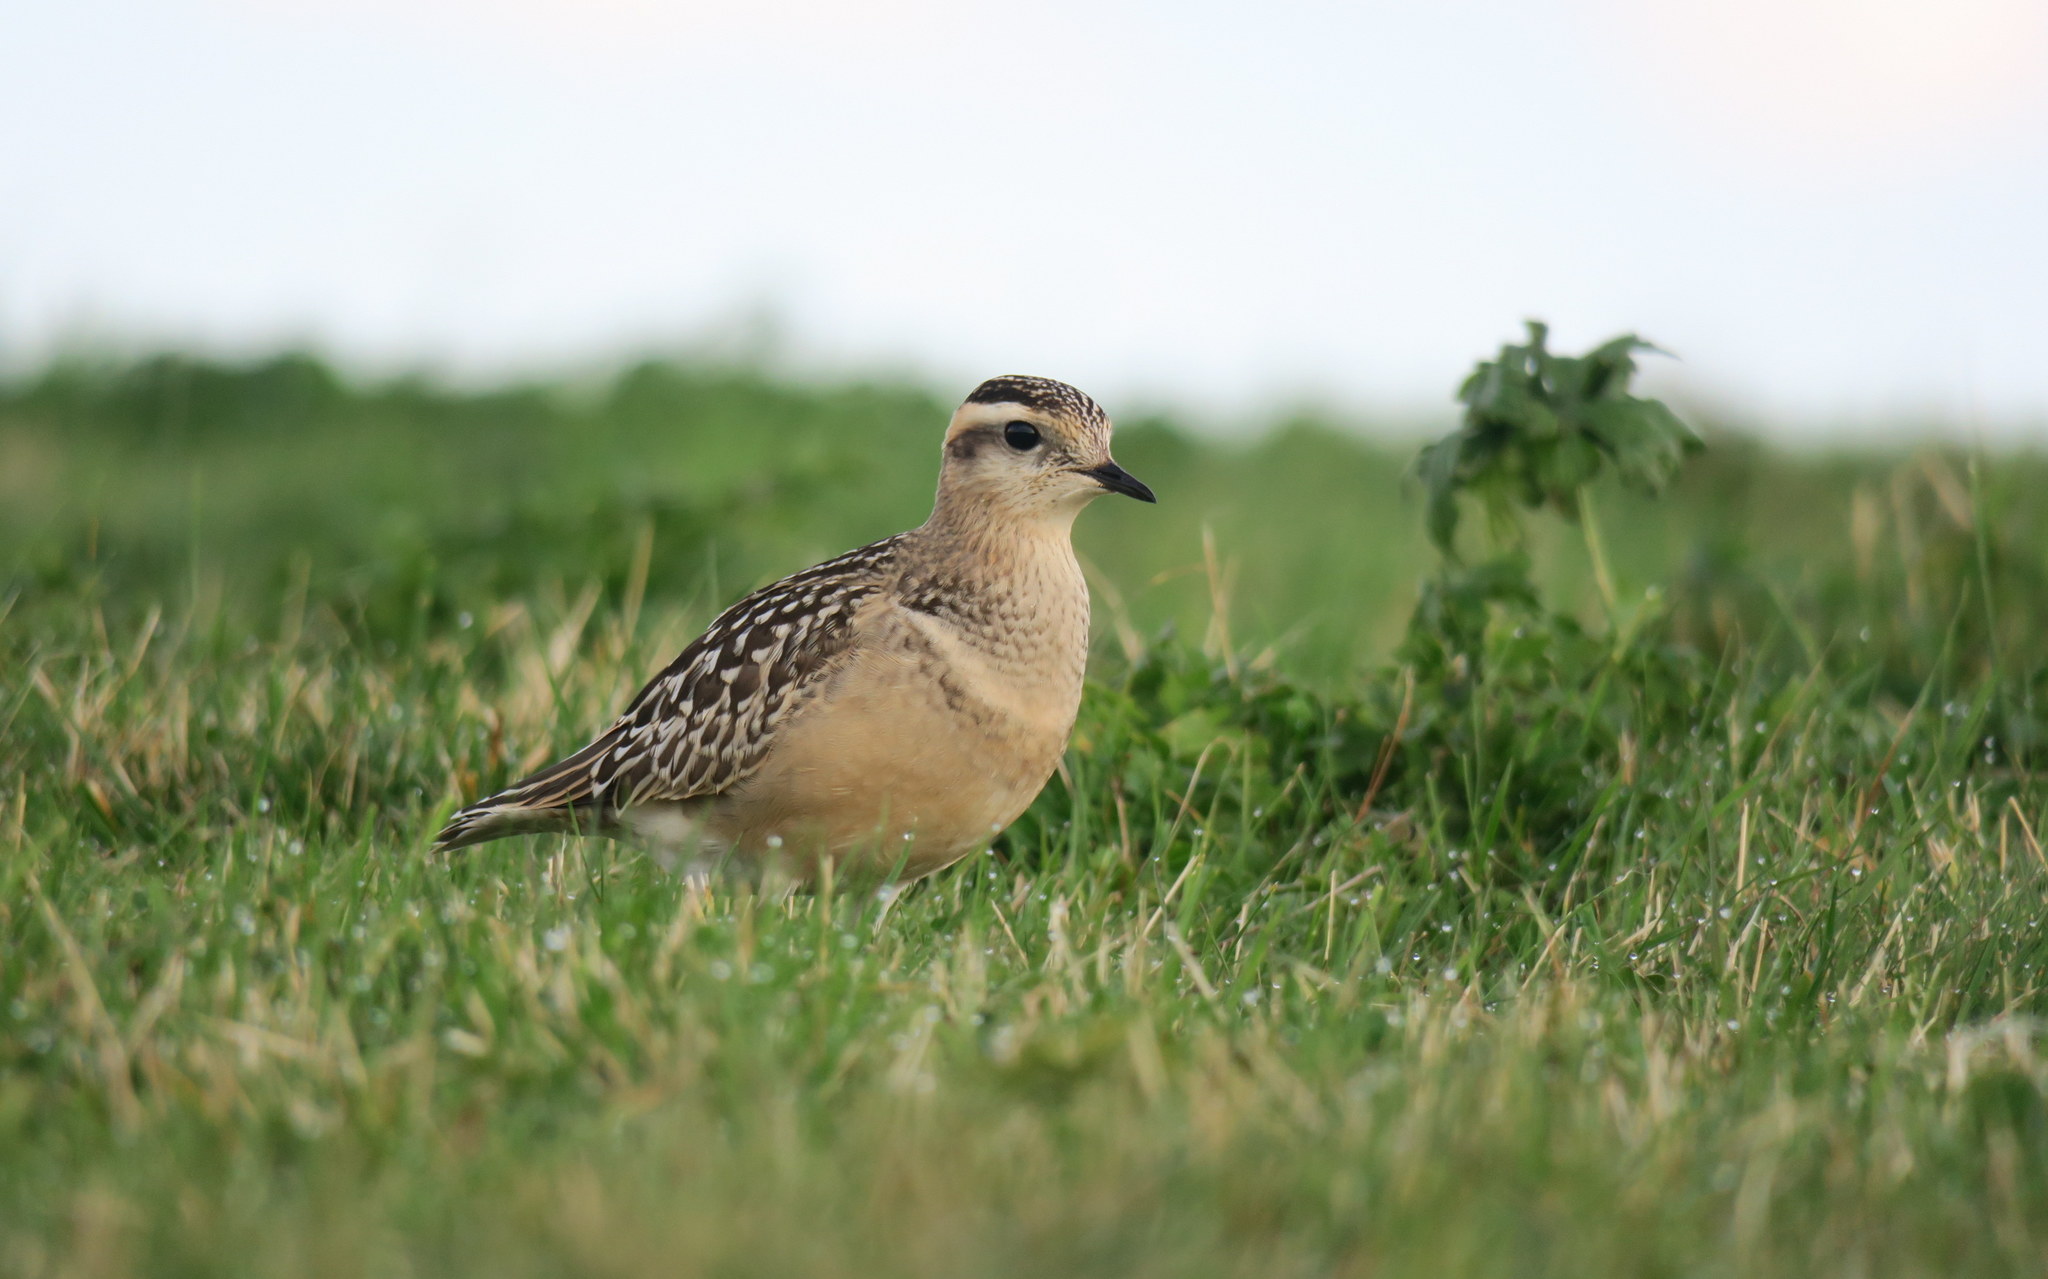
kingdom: Animalia
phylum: Chordata
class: Aves
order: Charadriiformes
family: Charadriidae
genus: Charadrius
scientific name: Charadrius morinellus
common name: Eurasian dotterel
